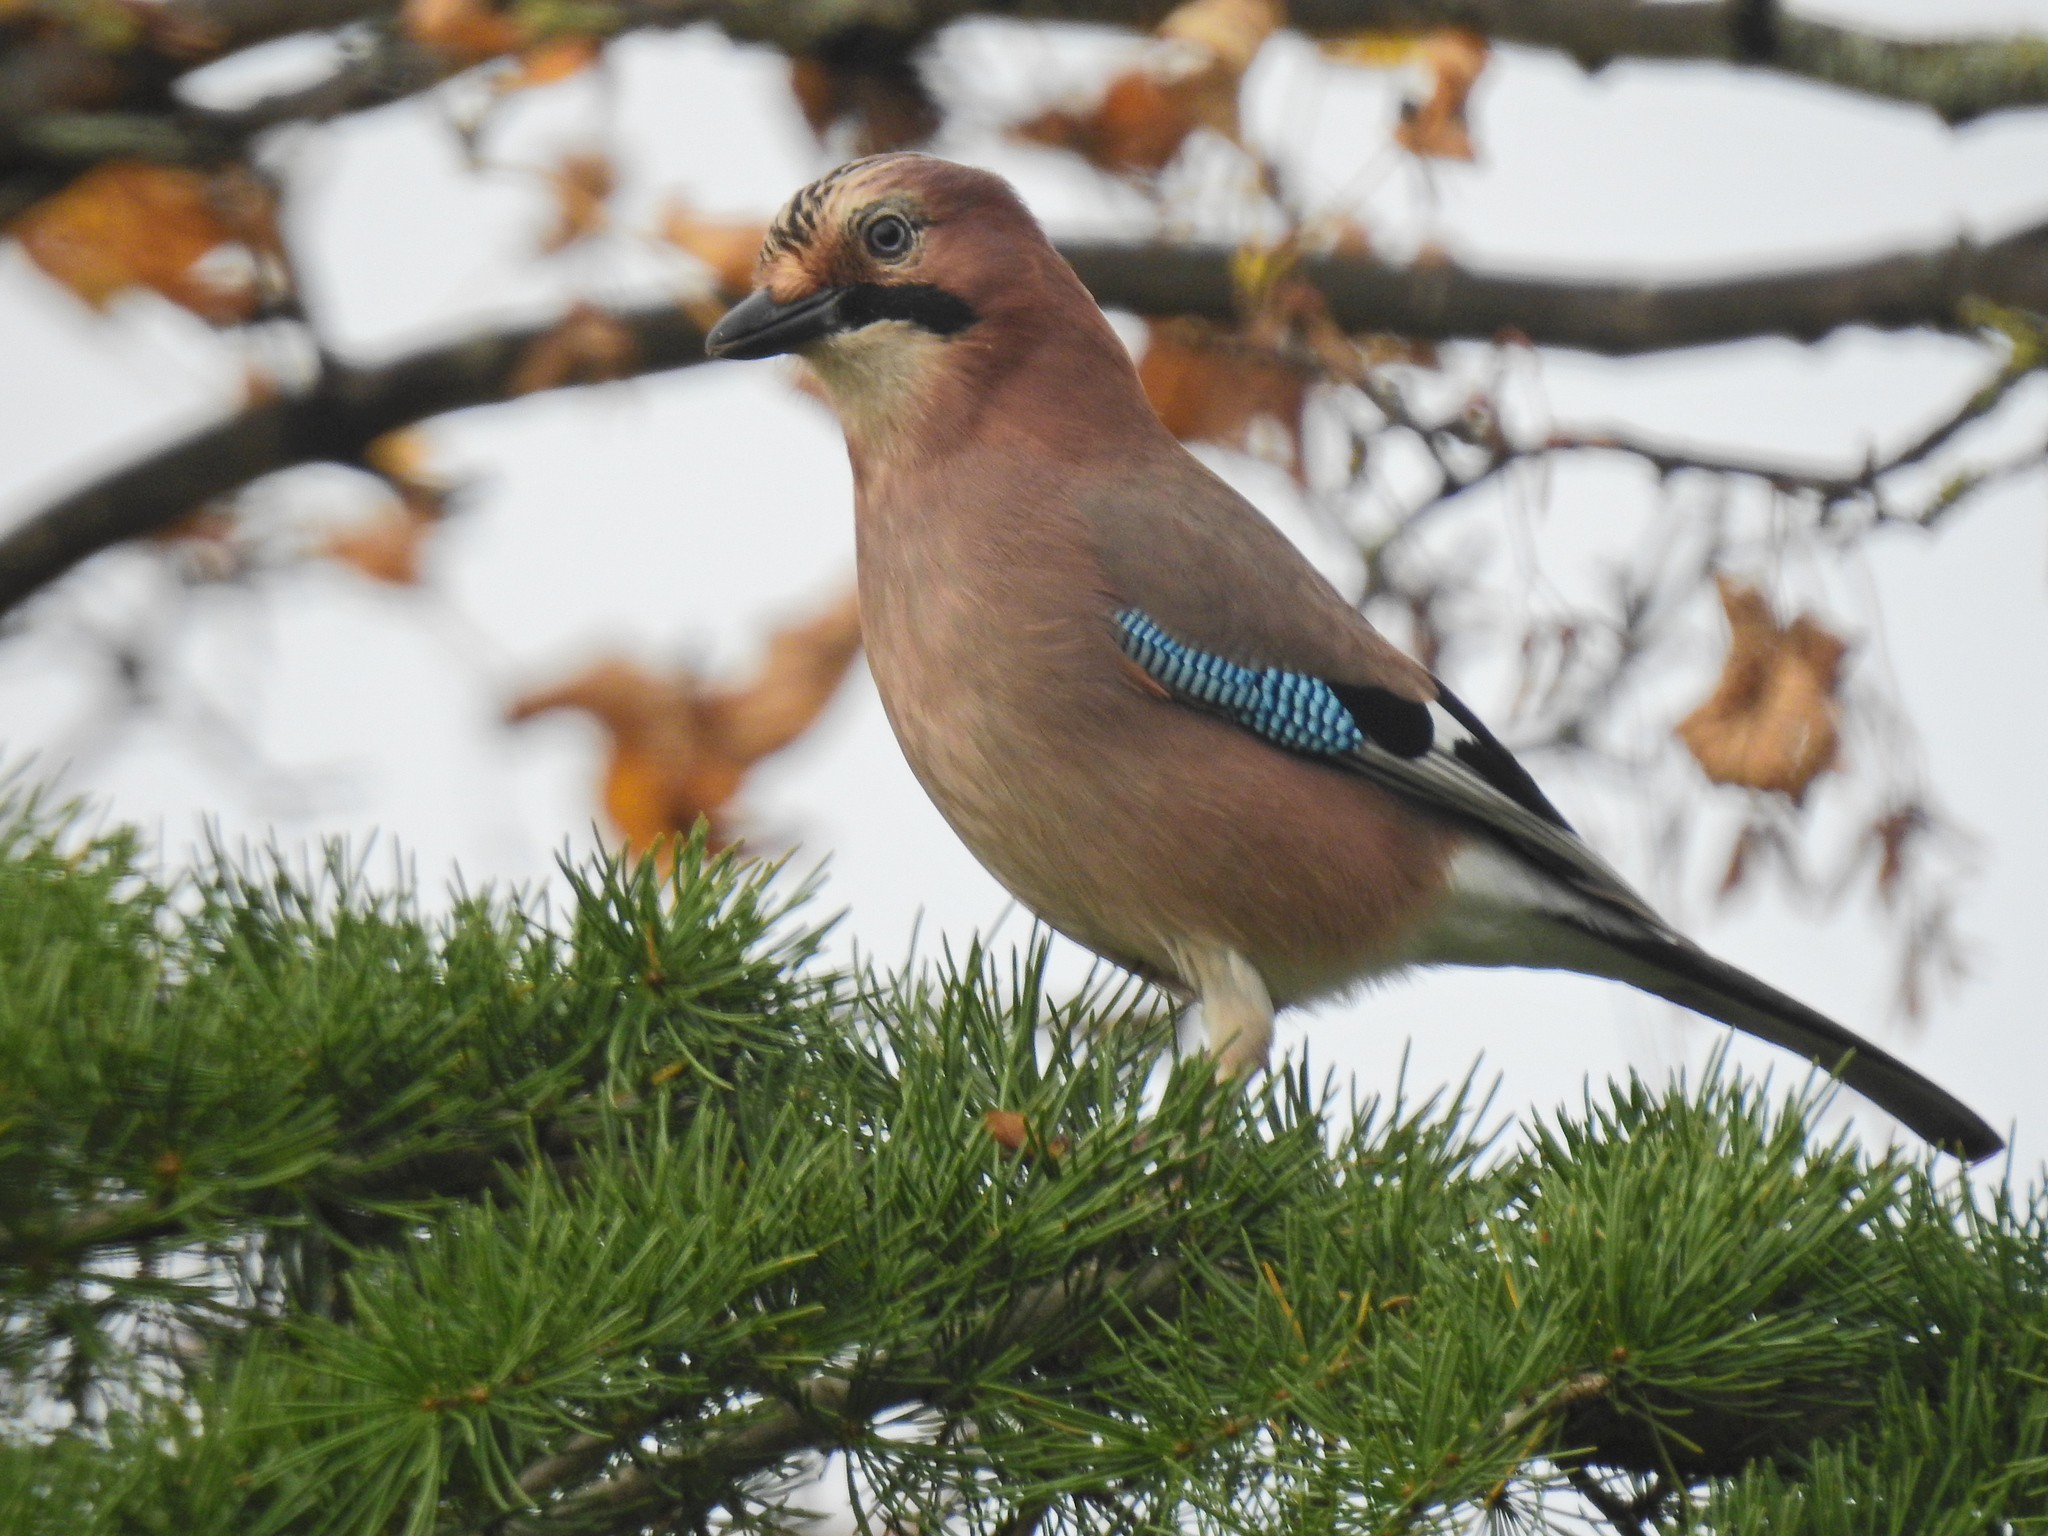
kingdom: Animalia
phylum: Chordata
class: Aves
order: Passeriformes
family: Corvidae
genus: Garrulus
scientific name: Garrulus glandarius
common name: Eurasian jay
